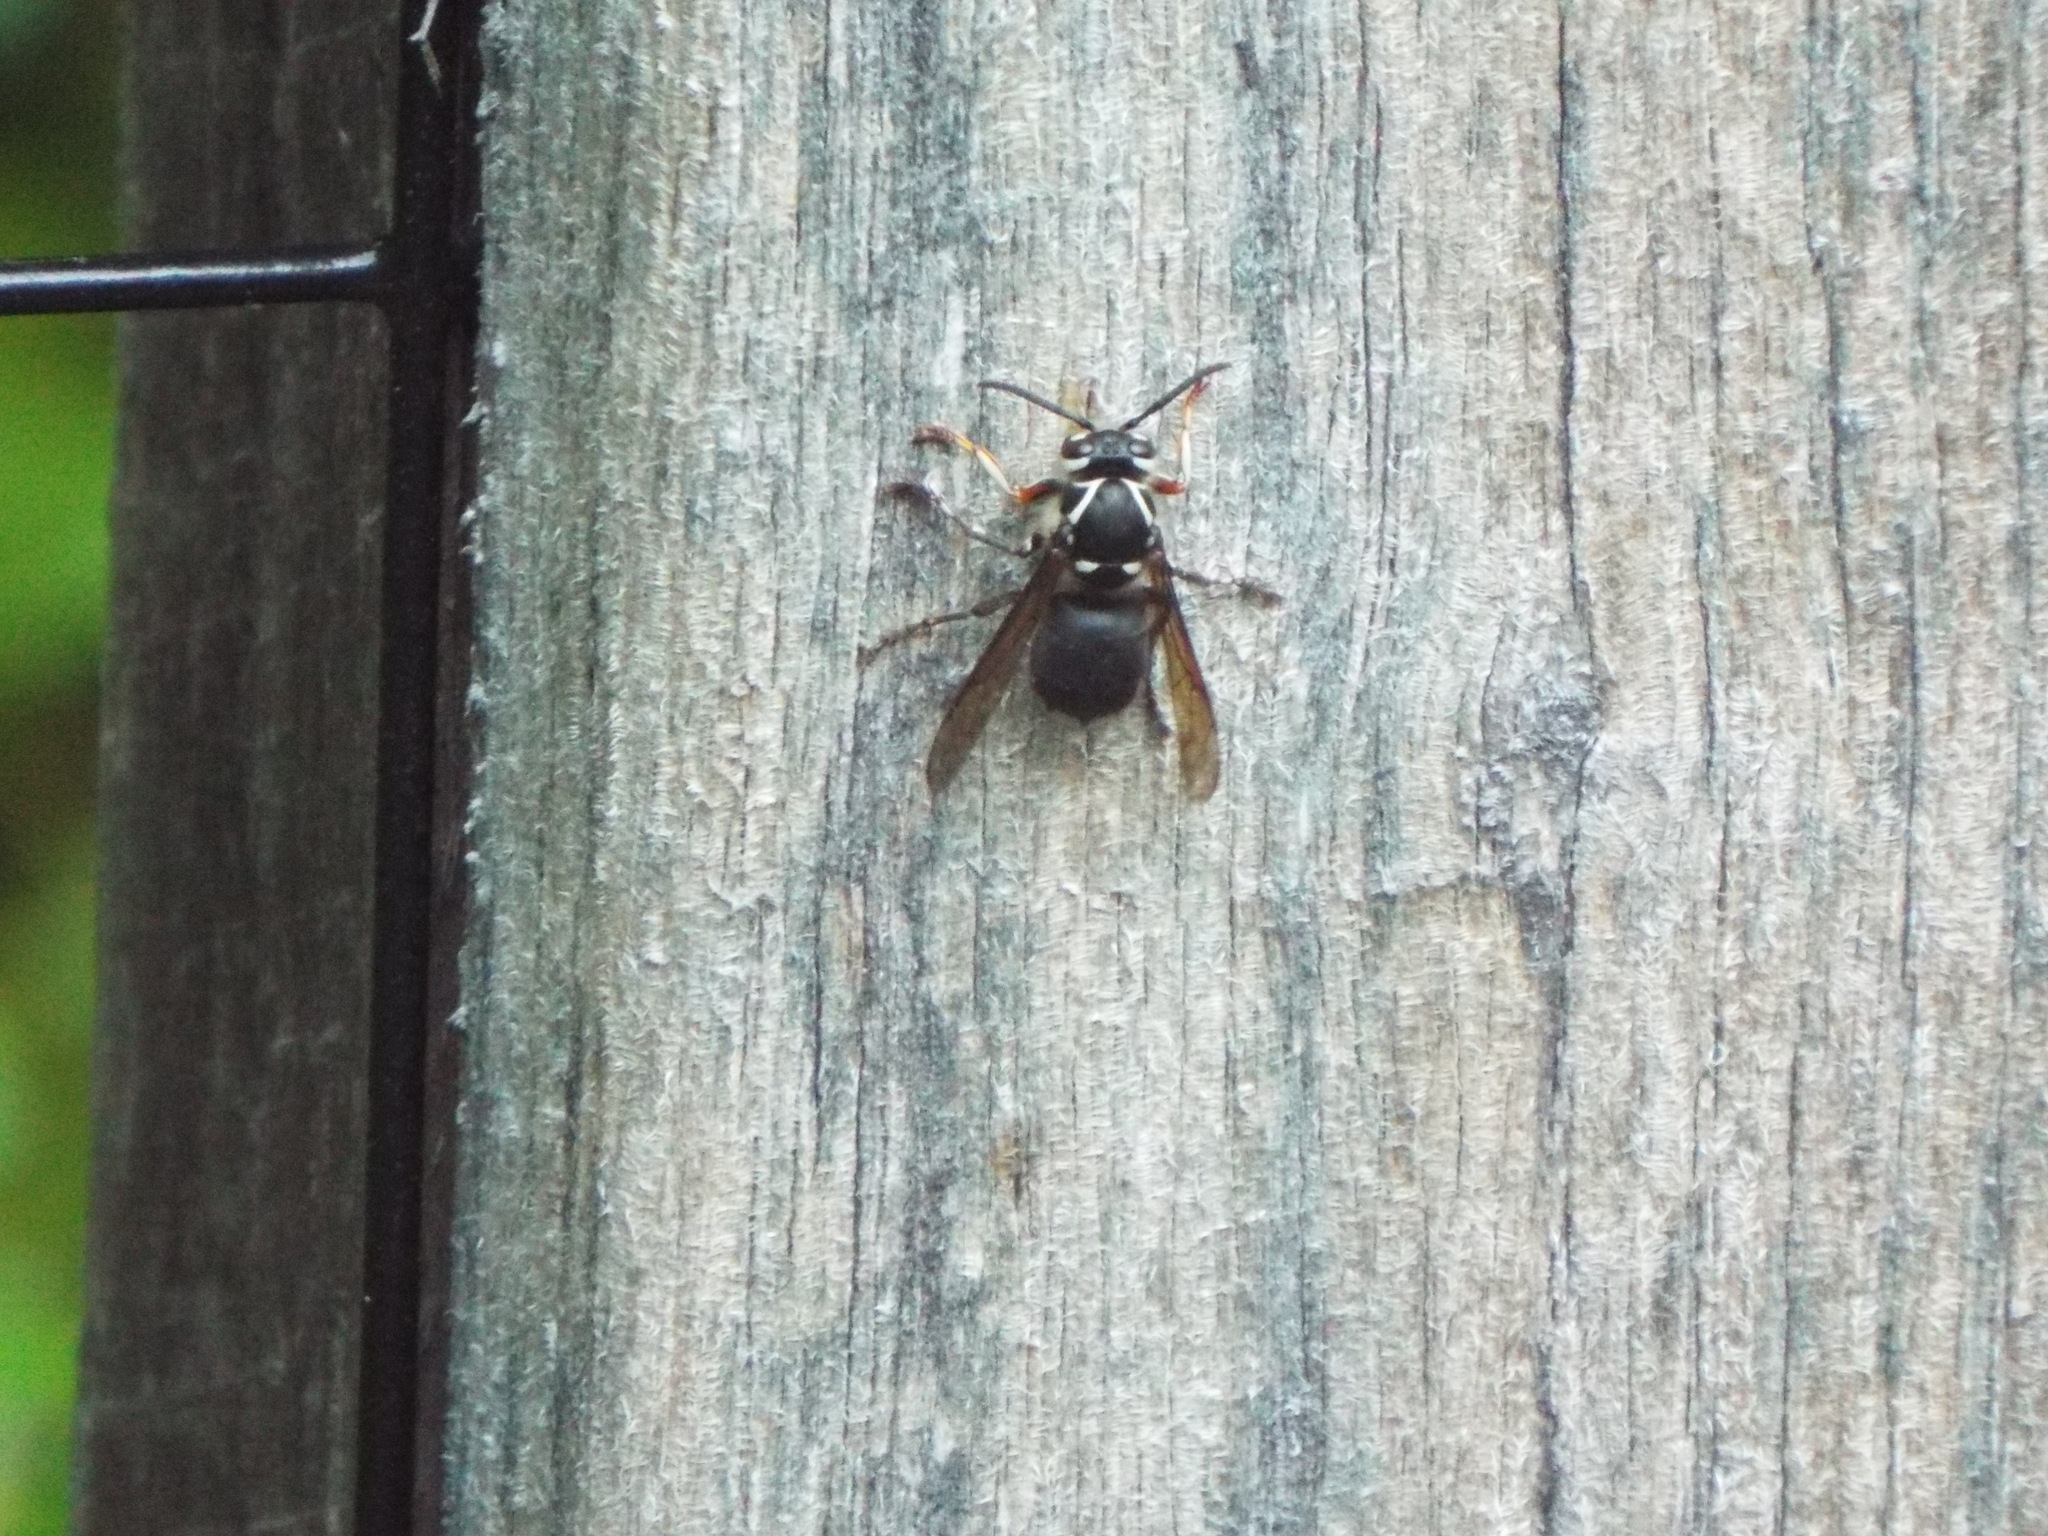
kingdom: Animalia
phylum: Arthropoda
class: Insecta
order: Hymenoptera
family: Vespidae
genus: Dolichovespula
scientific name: Dolichovespula maculata
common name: Bald-faced hornet
